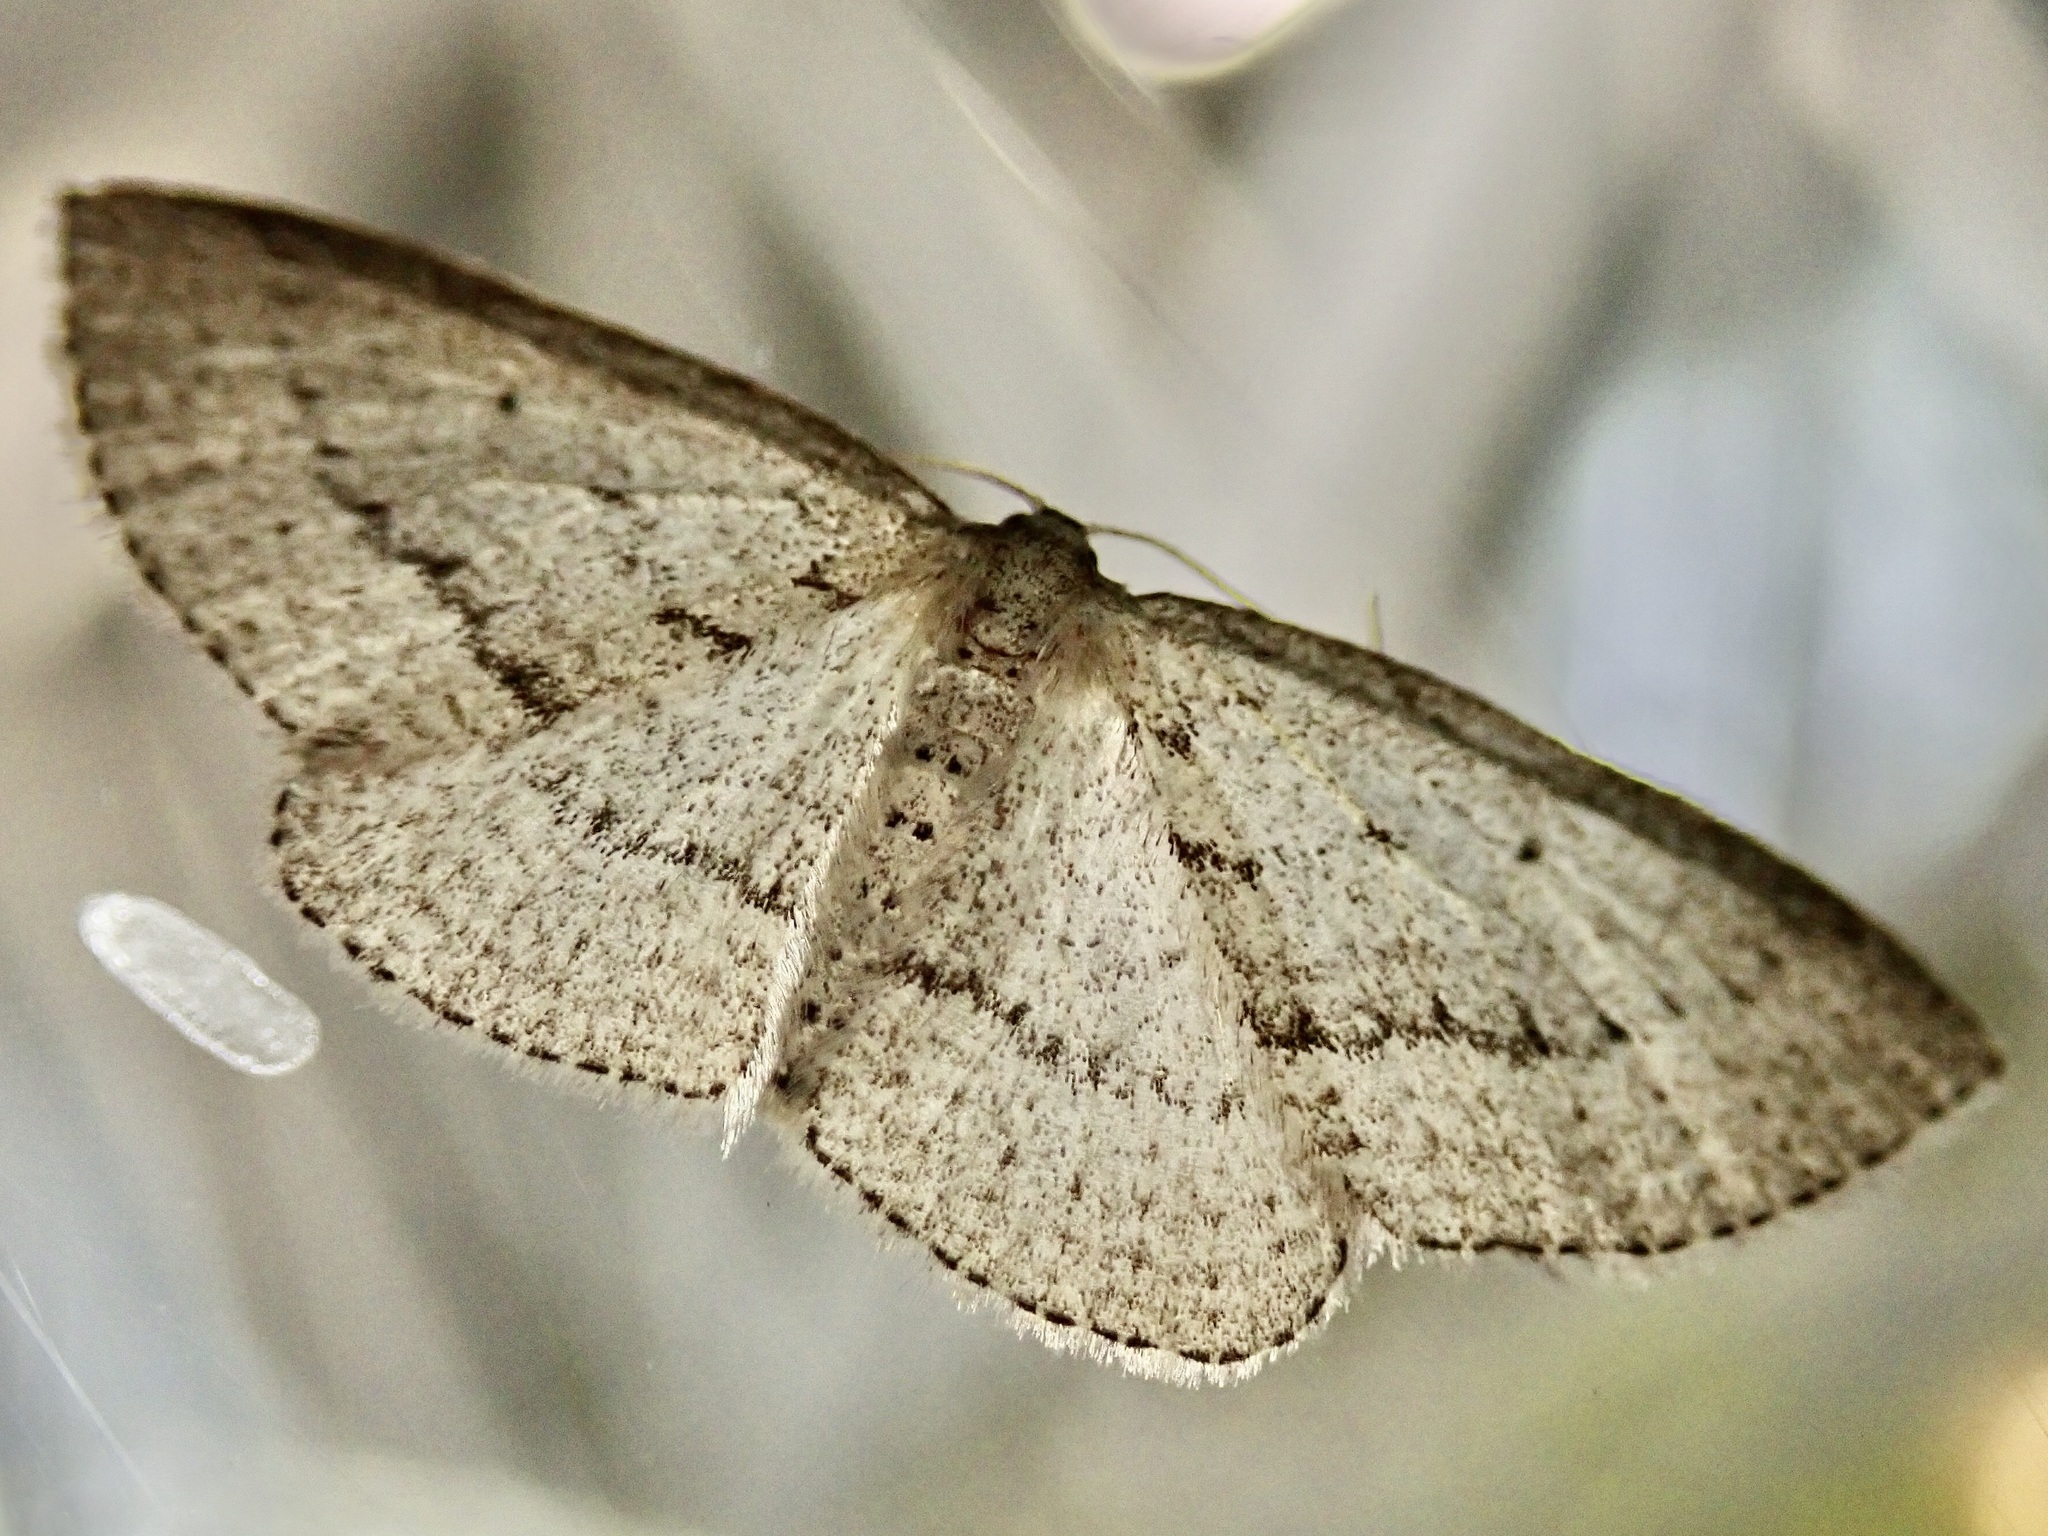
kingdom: Animalia
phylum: Arthropoda
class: Insecta
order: Lepidoptera
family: Geometridae
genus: Poecilasthena
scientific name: Poecilasthena schistaria
